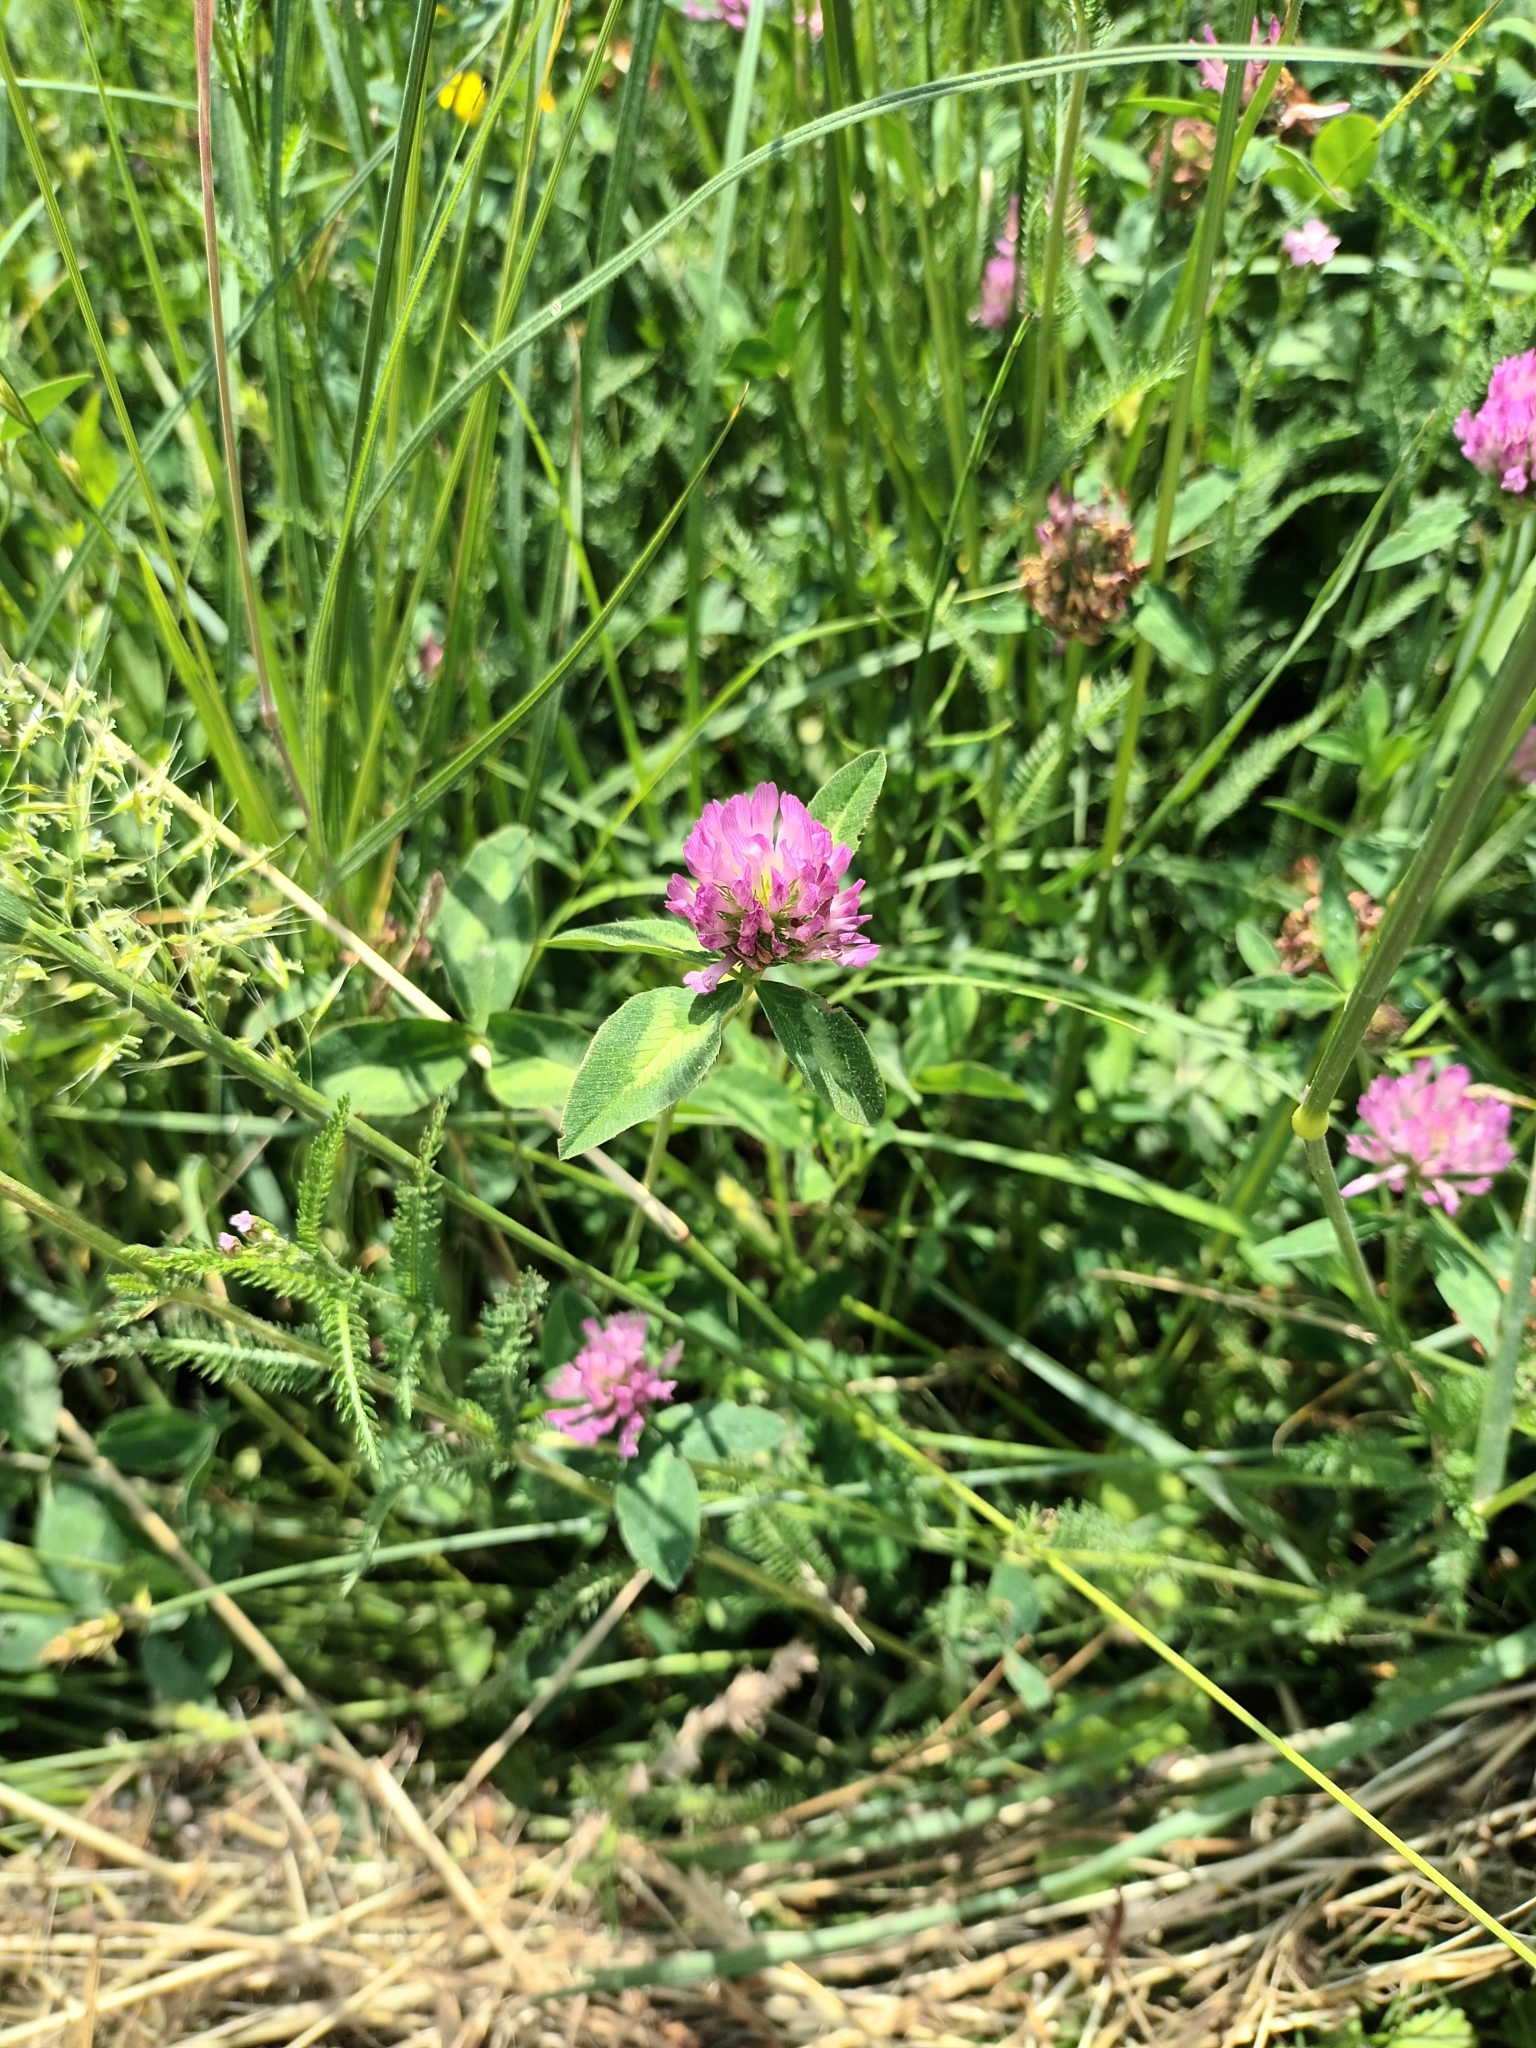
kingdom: Plantae
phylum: Tracheophyta
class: Magnoliopsida
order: Fabales
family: Fabaceae
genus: Trifolium
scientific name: Trifolium pratense
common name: Red clover
